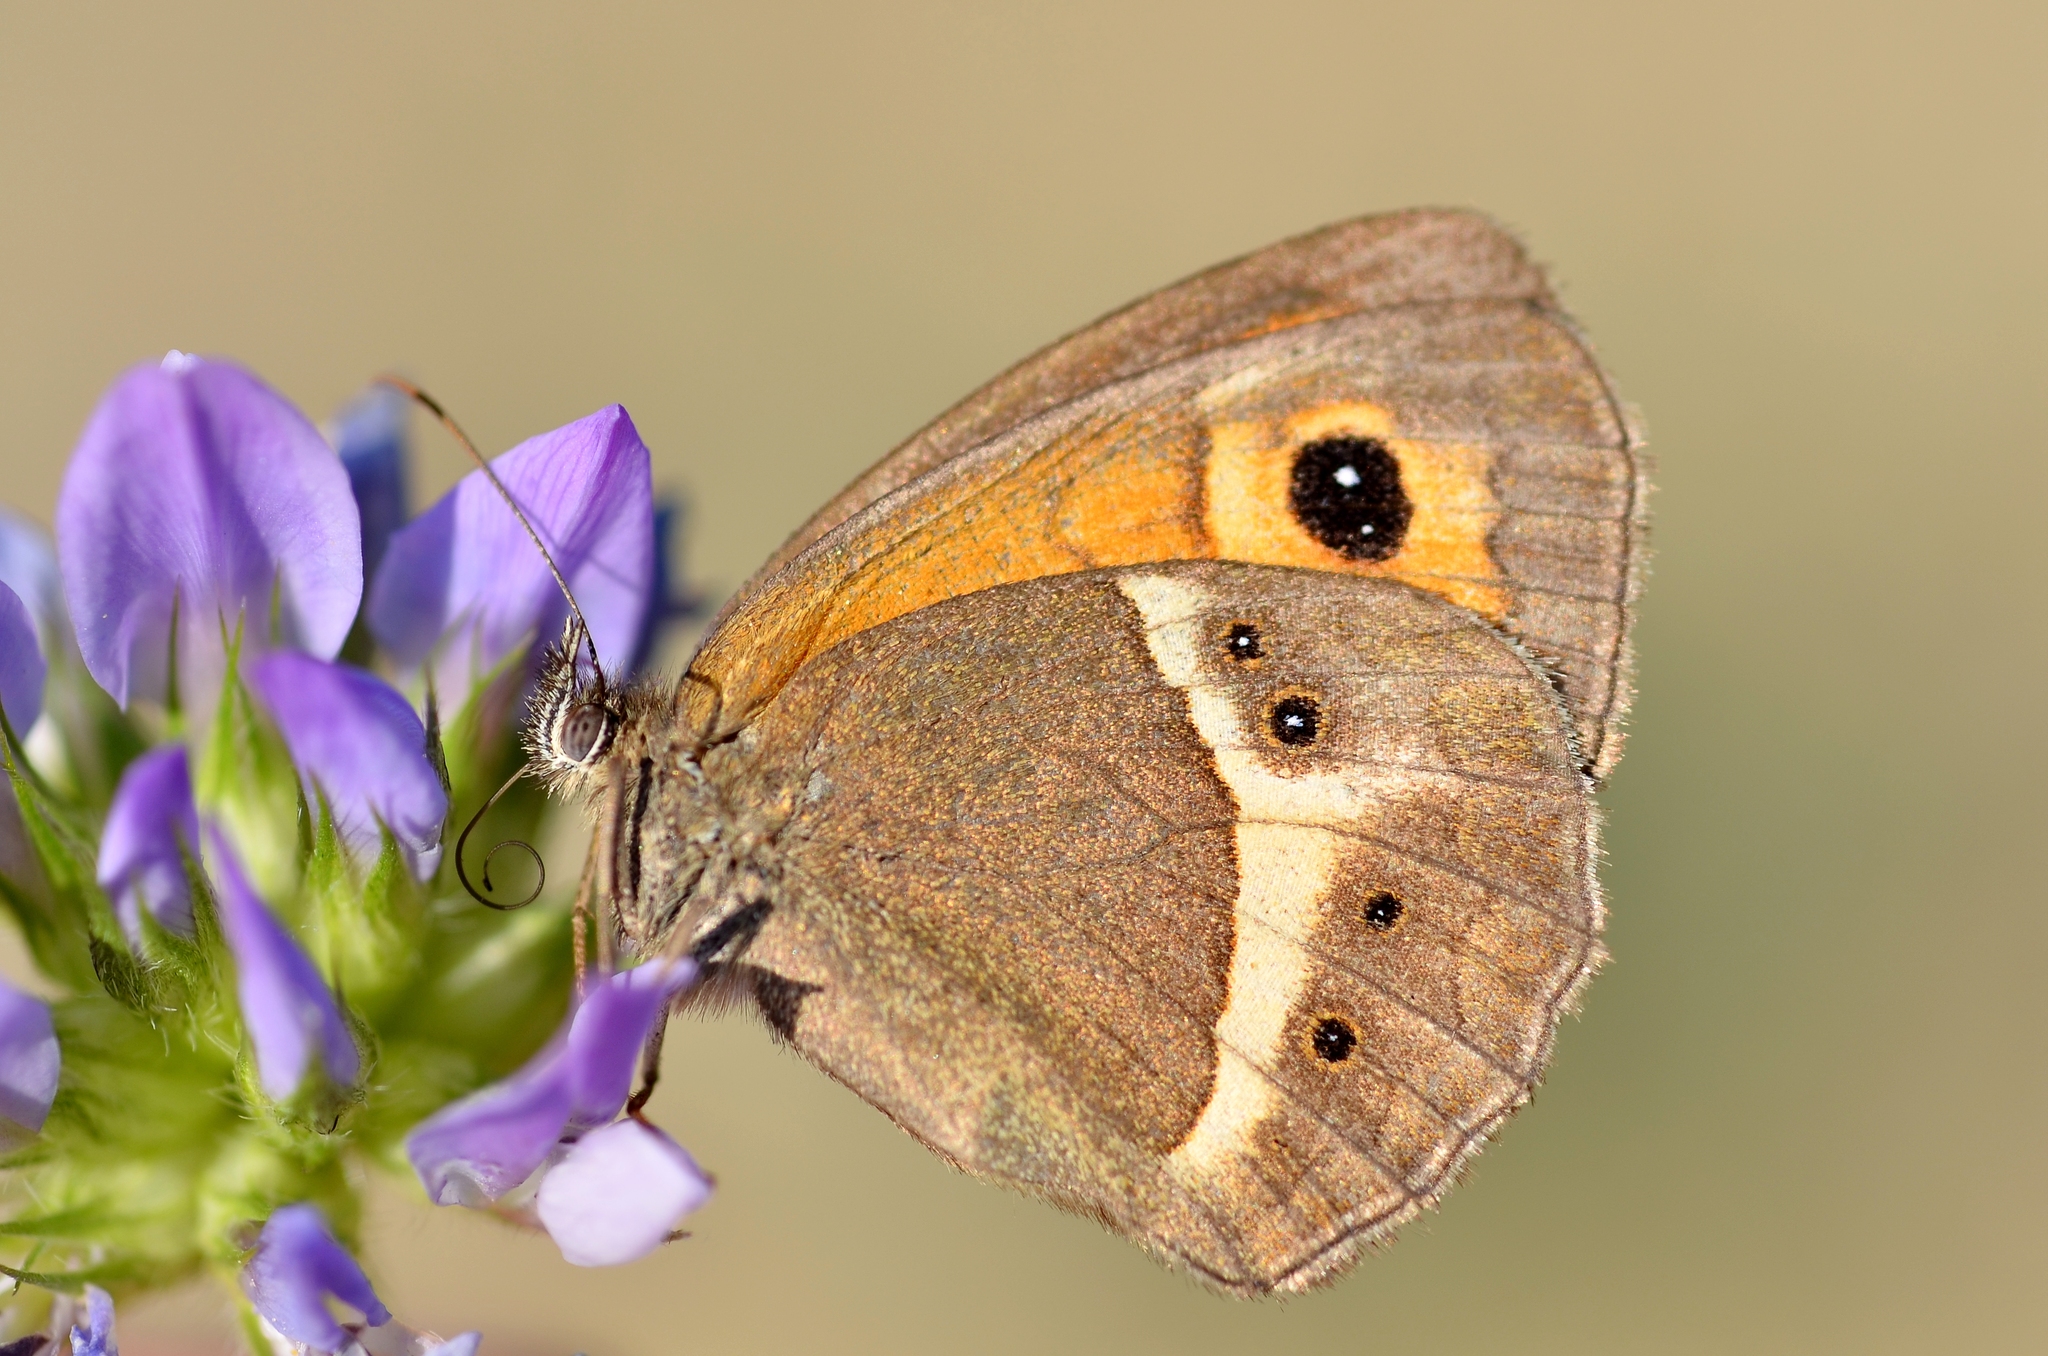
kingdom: Animalia
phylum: Arthropoda
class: Insecta
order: Lepidoptera
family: Nymphalidae
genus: Pyronia
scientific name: Pyronia bathseba
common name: Spanish gatekeeper
